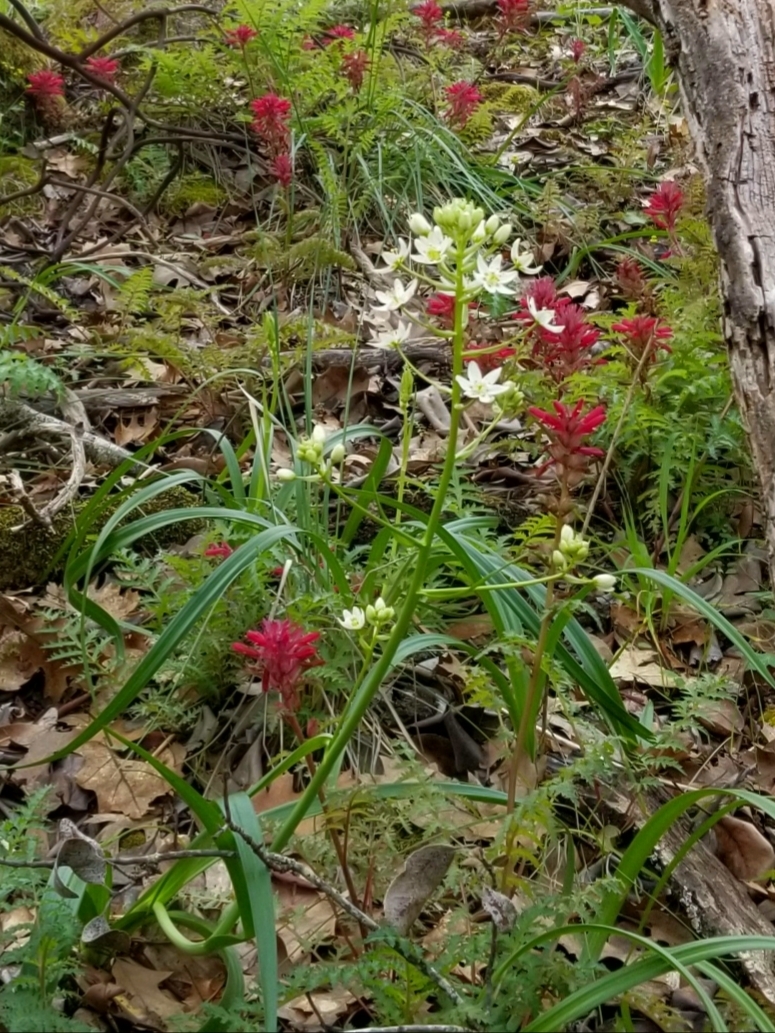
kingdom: Plantae
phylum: Tracheophyta
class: Liliopsida
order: Liliales
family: Melanthiaceae
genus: Toxicoscordion
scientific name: Toxicoscordion fremontii
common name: Fremont's death camas
